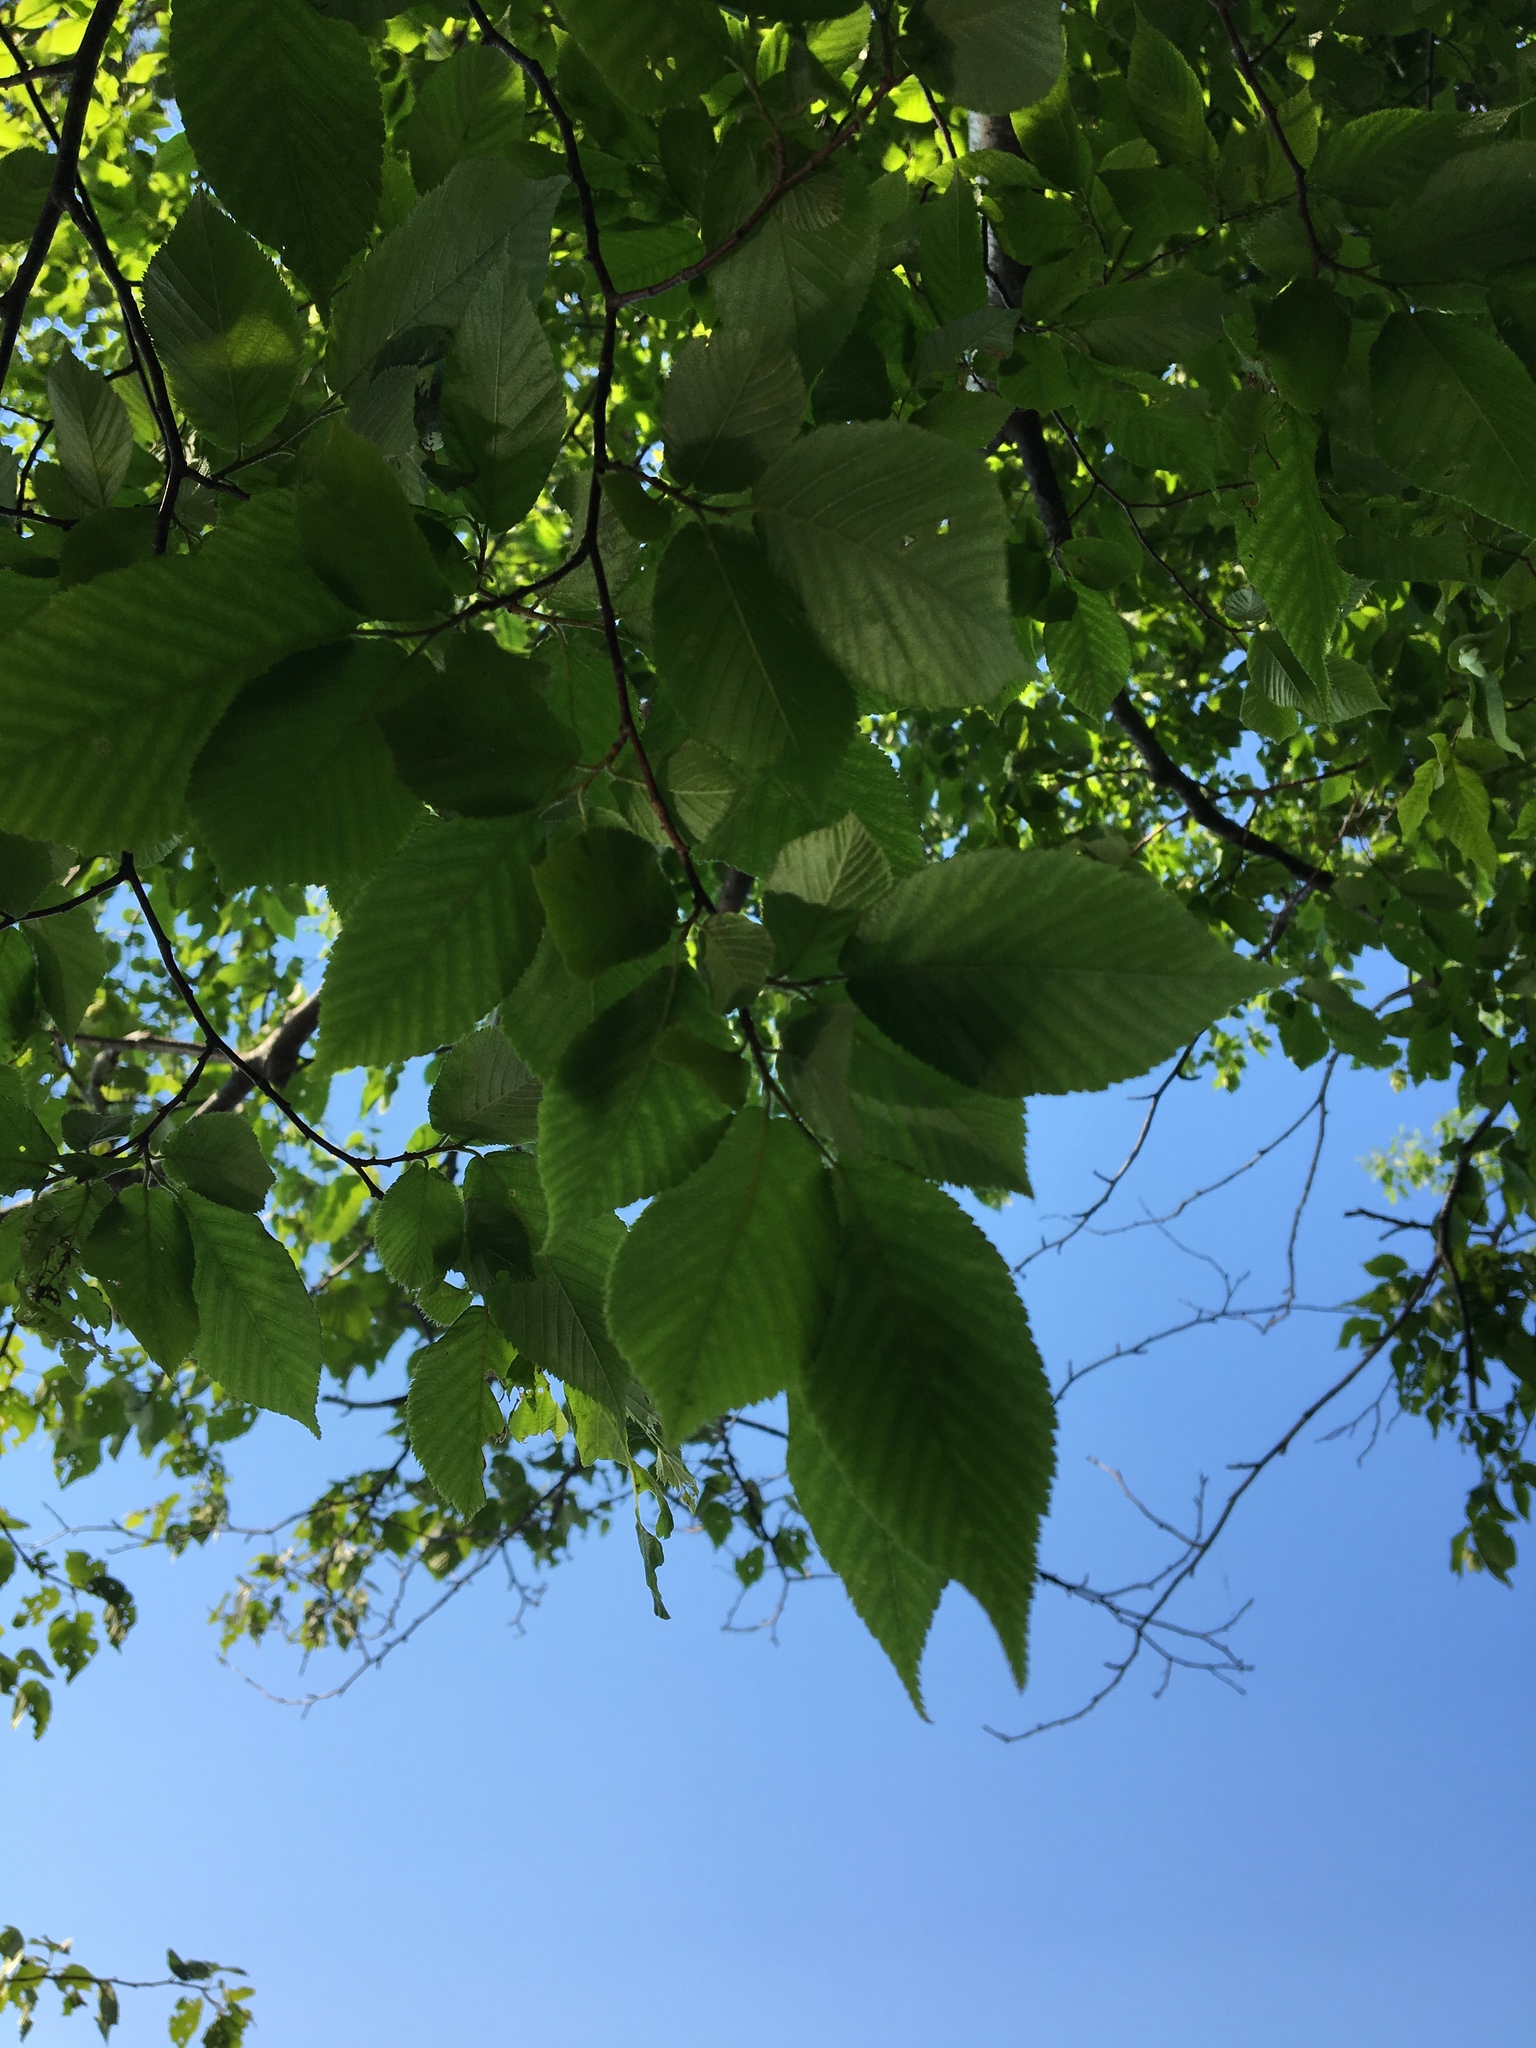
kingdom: Plantae
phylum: Tracheophyta
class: Magnoliopsida
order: Fagales
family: Betulaceae
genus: Ostrya
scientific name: Ostrya virginiana
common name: Ironwood
